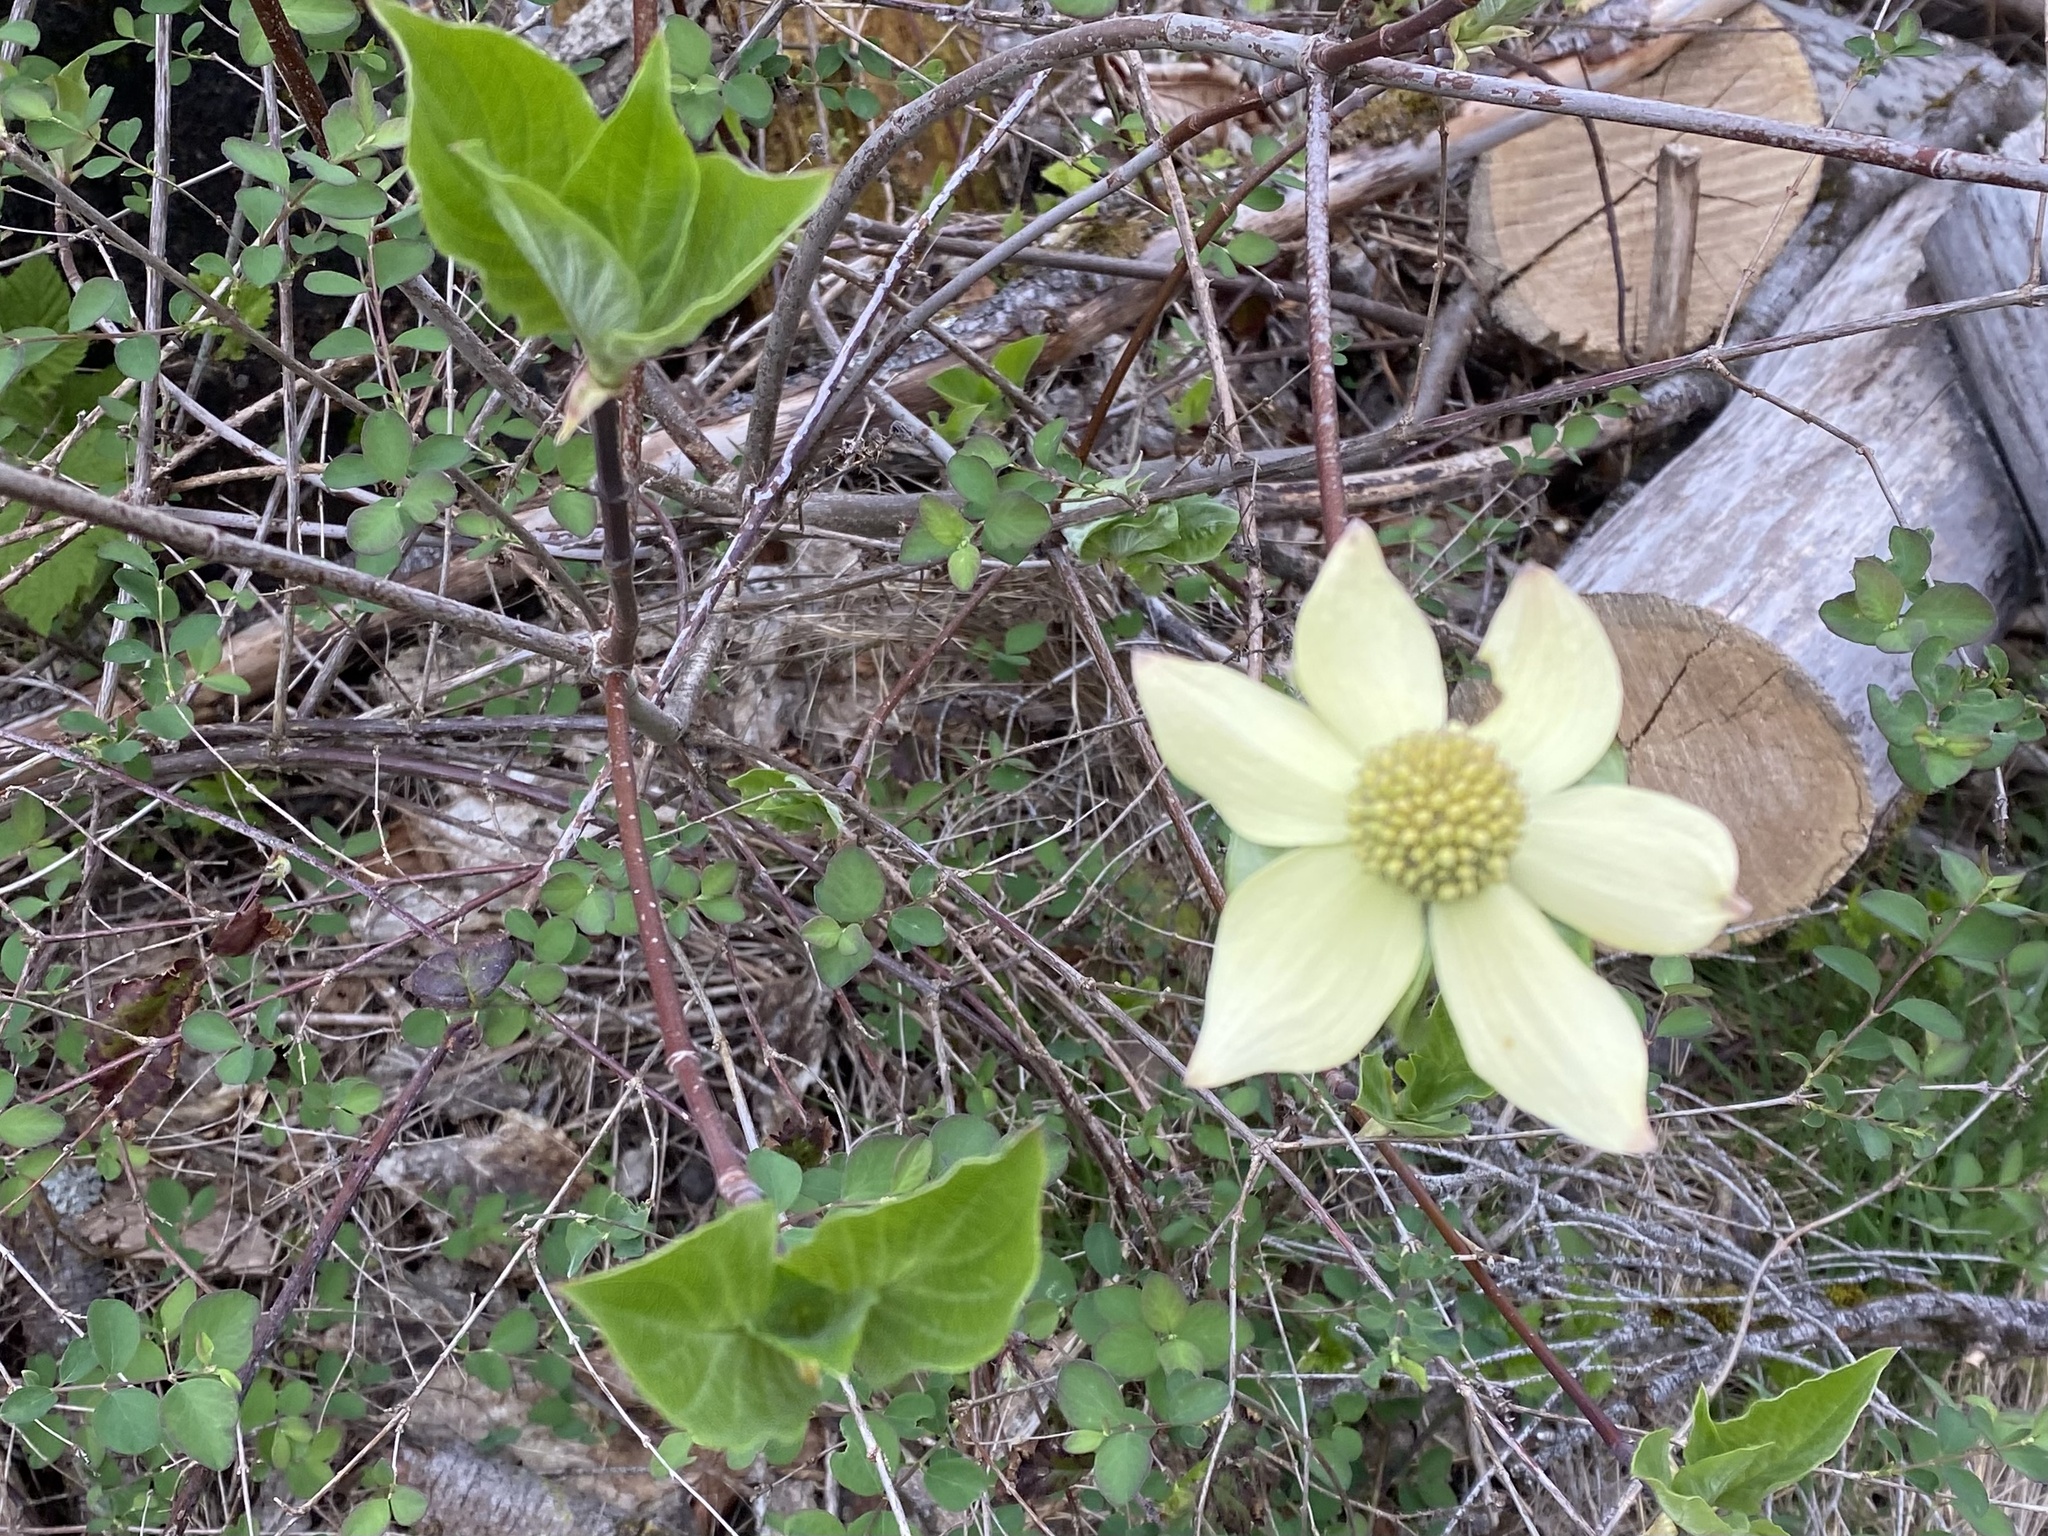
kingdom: Plantae
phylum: Tracheophyta
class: Magnoliopsida
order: Cornales
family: Cornaceae
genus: Cornus
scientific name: Cornus nuttallii
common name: Pacific dogwood
